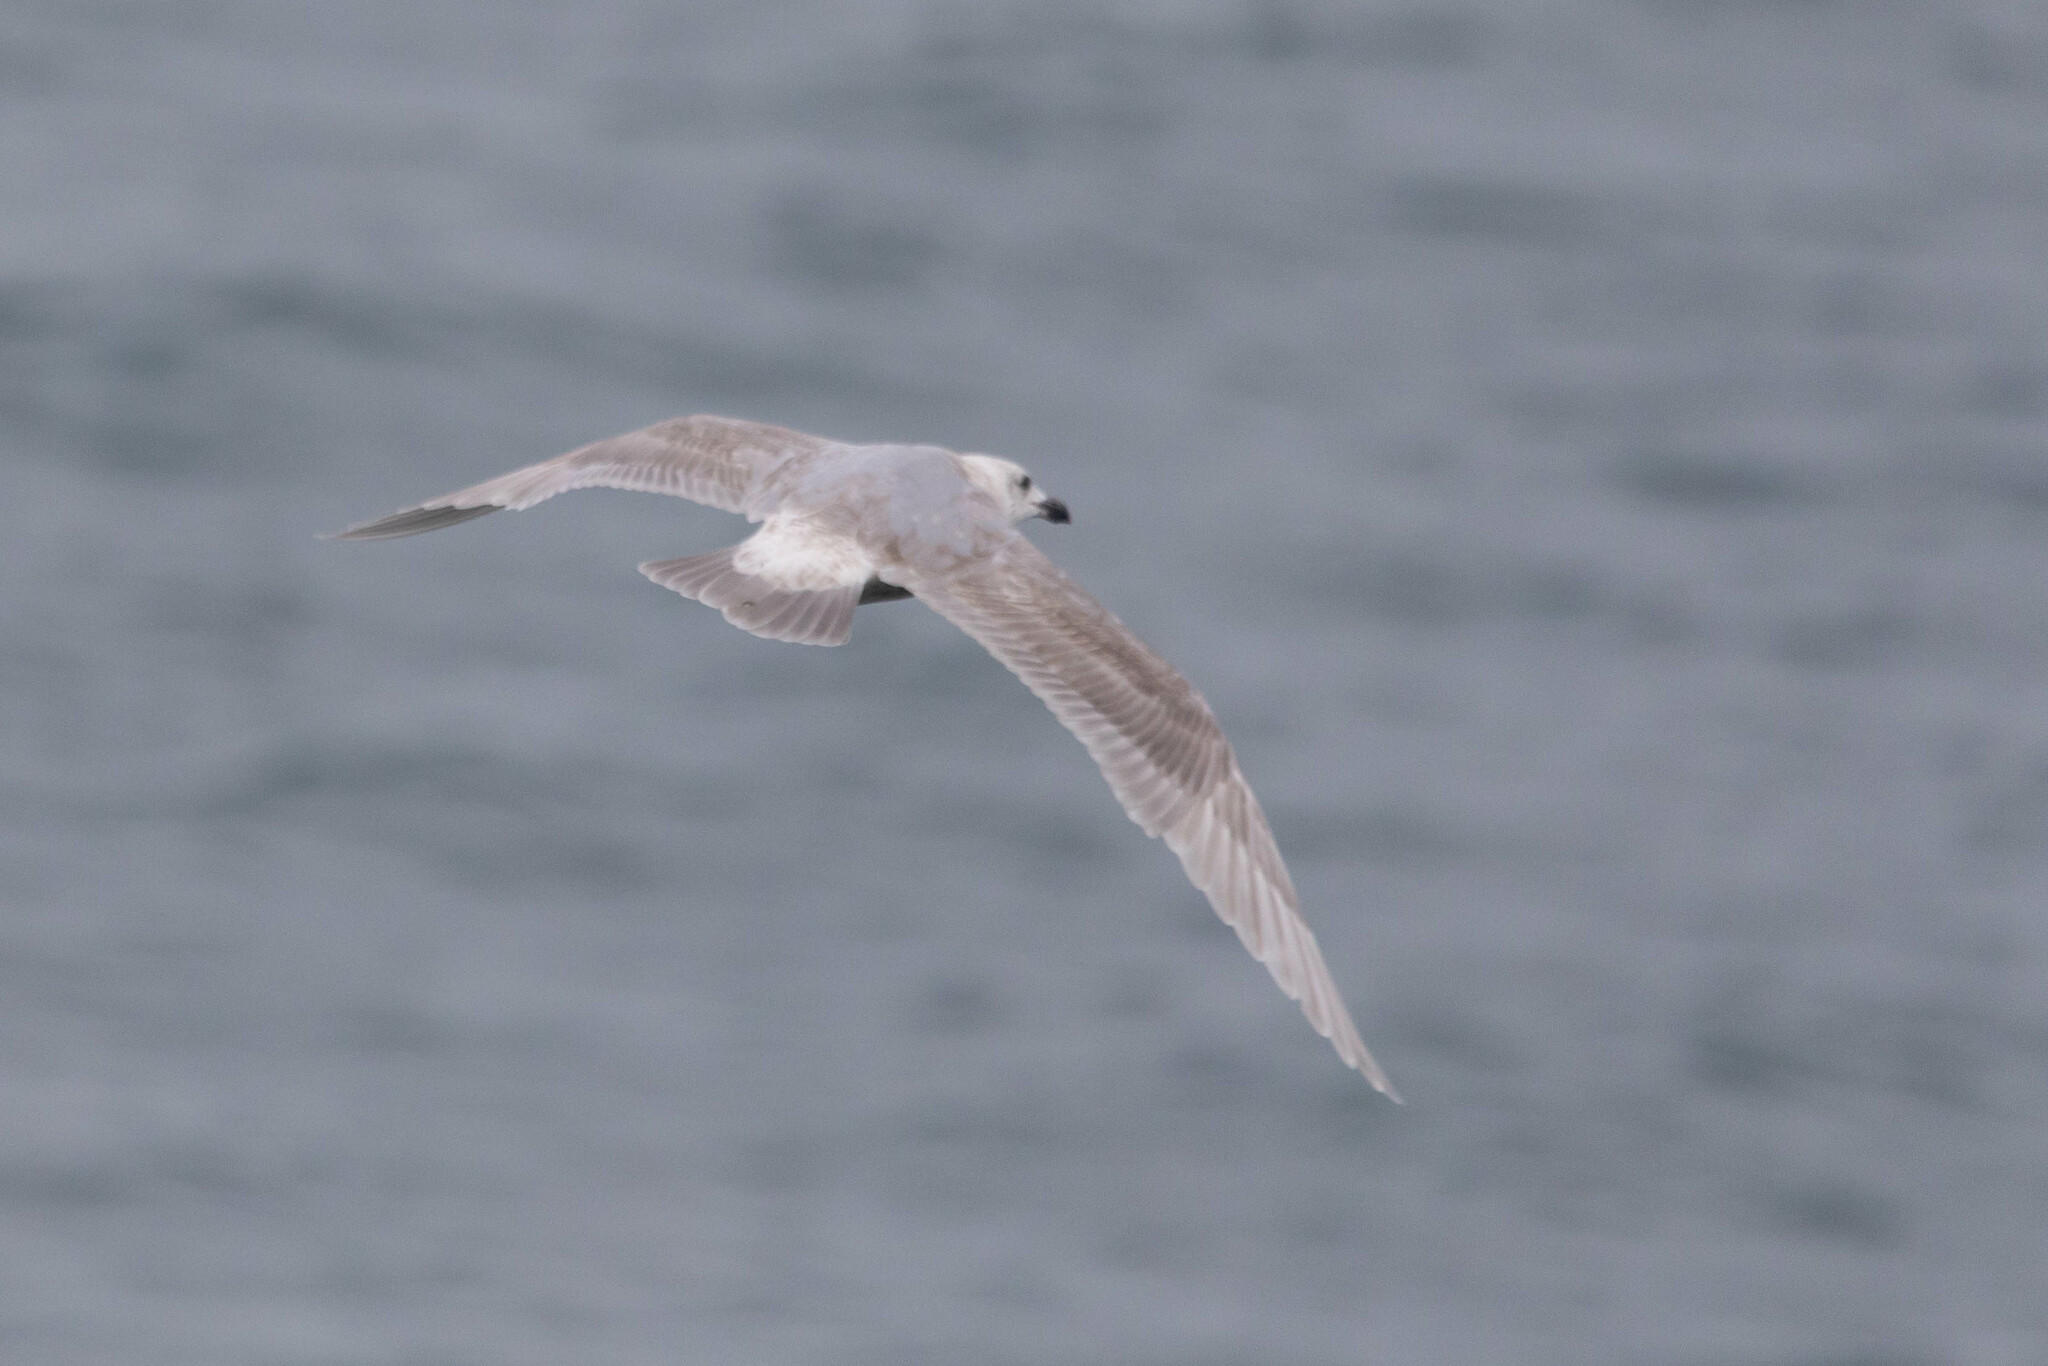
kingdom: Animalia
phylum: Chordata
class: Aves
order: Charadriiformes
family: Laridae
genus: Larus
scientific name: Larus glaucescens
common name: Glaucous-winged gull
